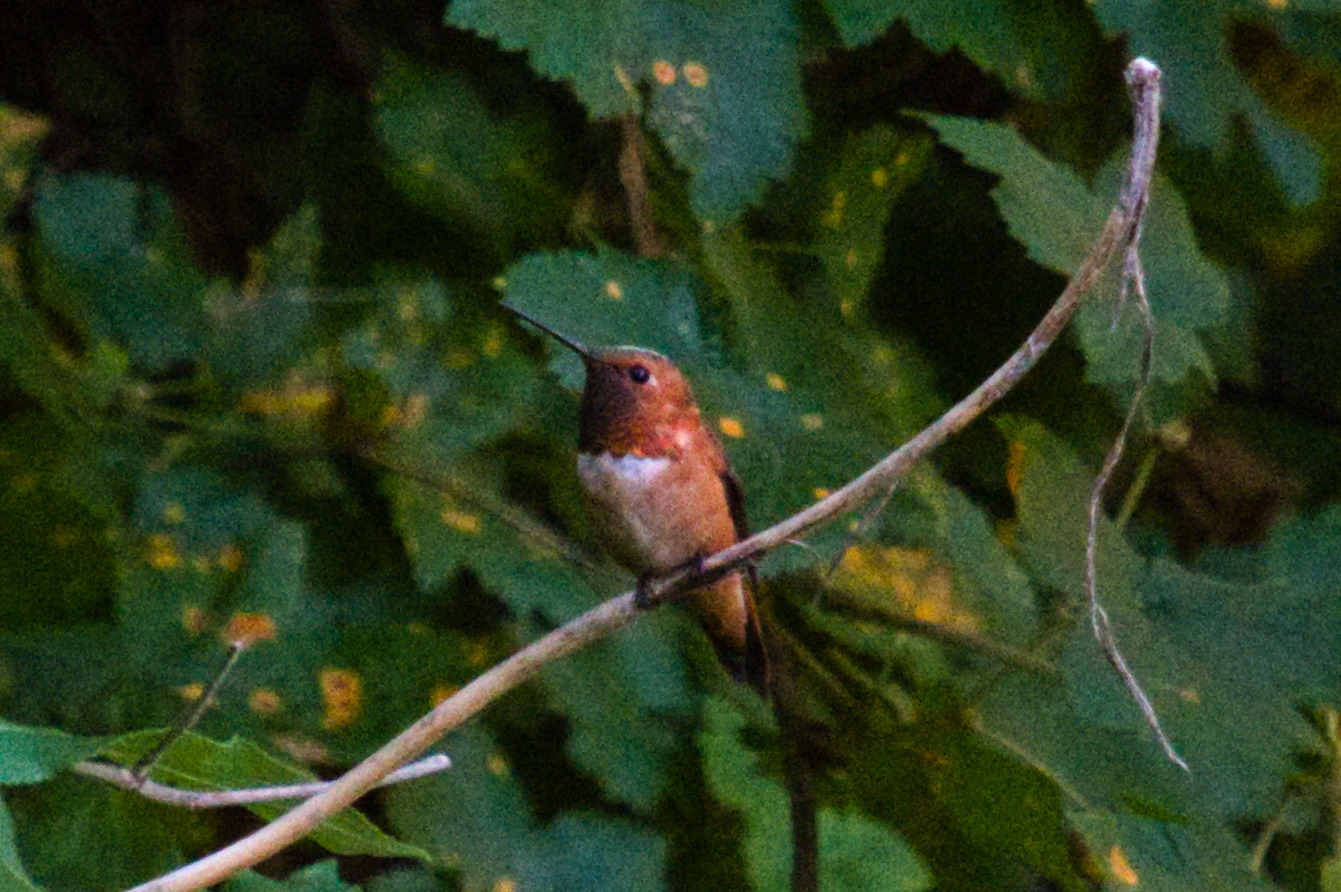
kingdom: Animalia
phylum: Chordata
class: Aves
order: Apodiformes
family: Trochilidae
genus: Selasphorus
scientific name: Selasphorus rufus
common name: Rufous hummingbird
